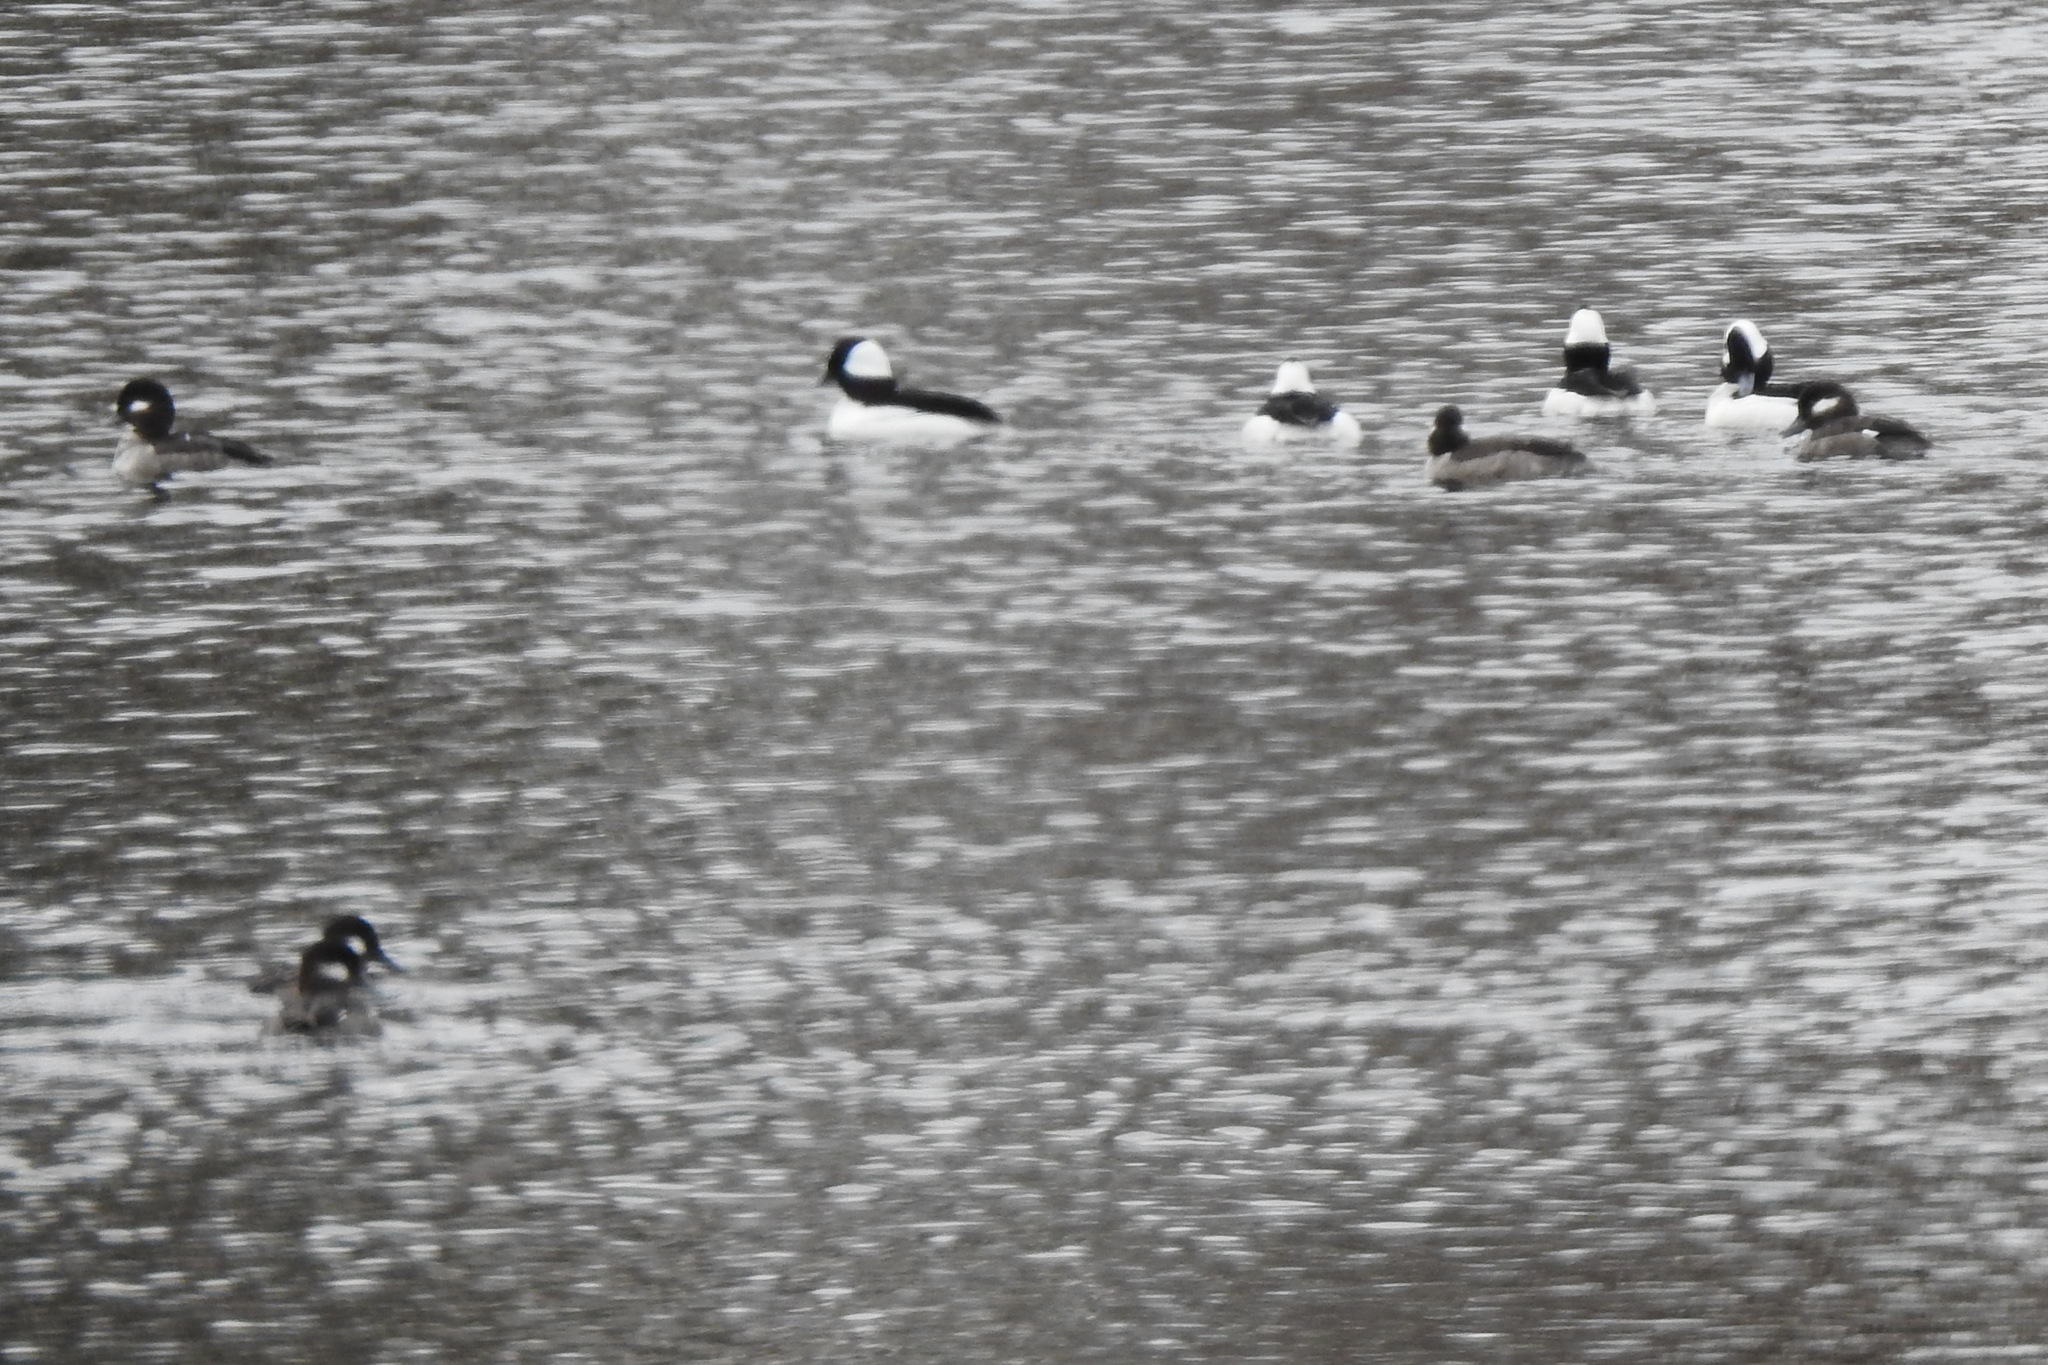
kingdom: Animalia
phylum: Chordata
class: Aves
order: Anseriformes
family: Anatidae
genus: Bucephala
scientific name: Bucephala albeola
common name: Bufflehead
